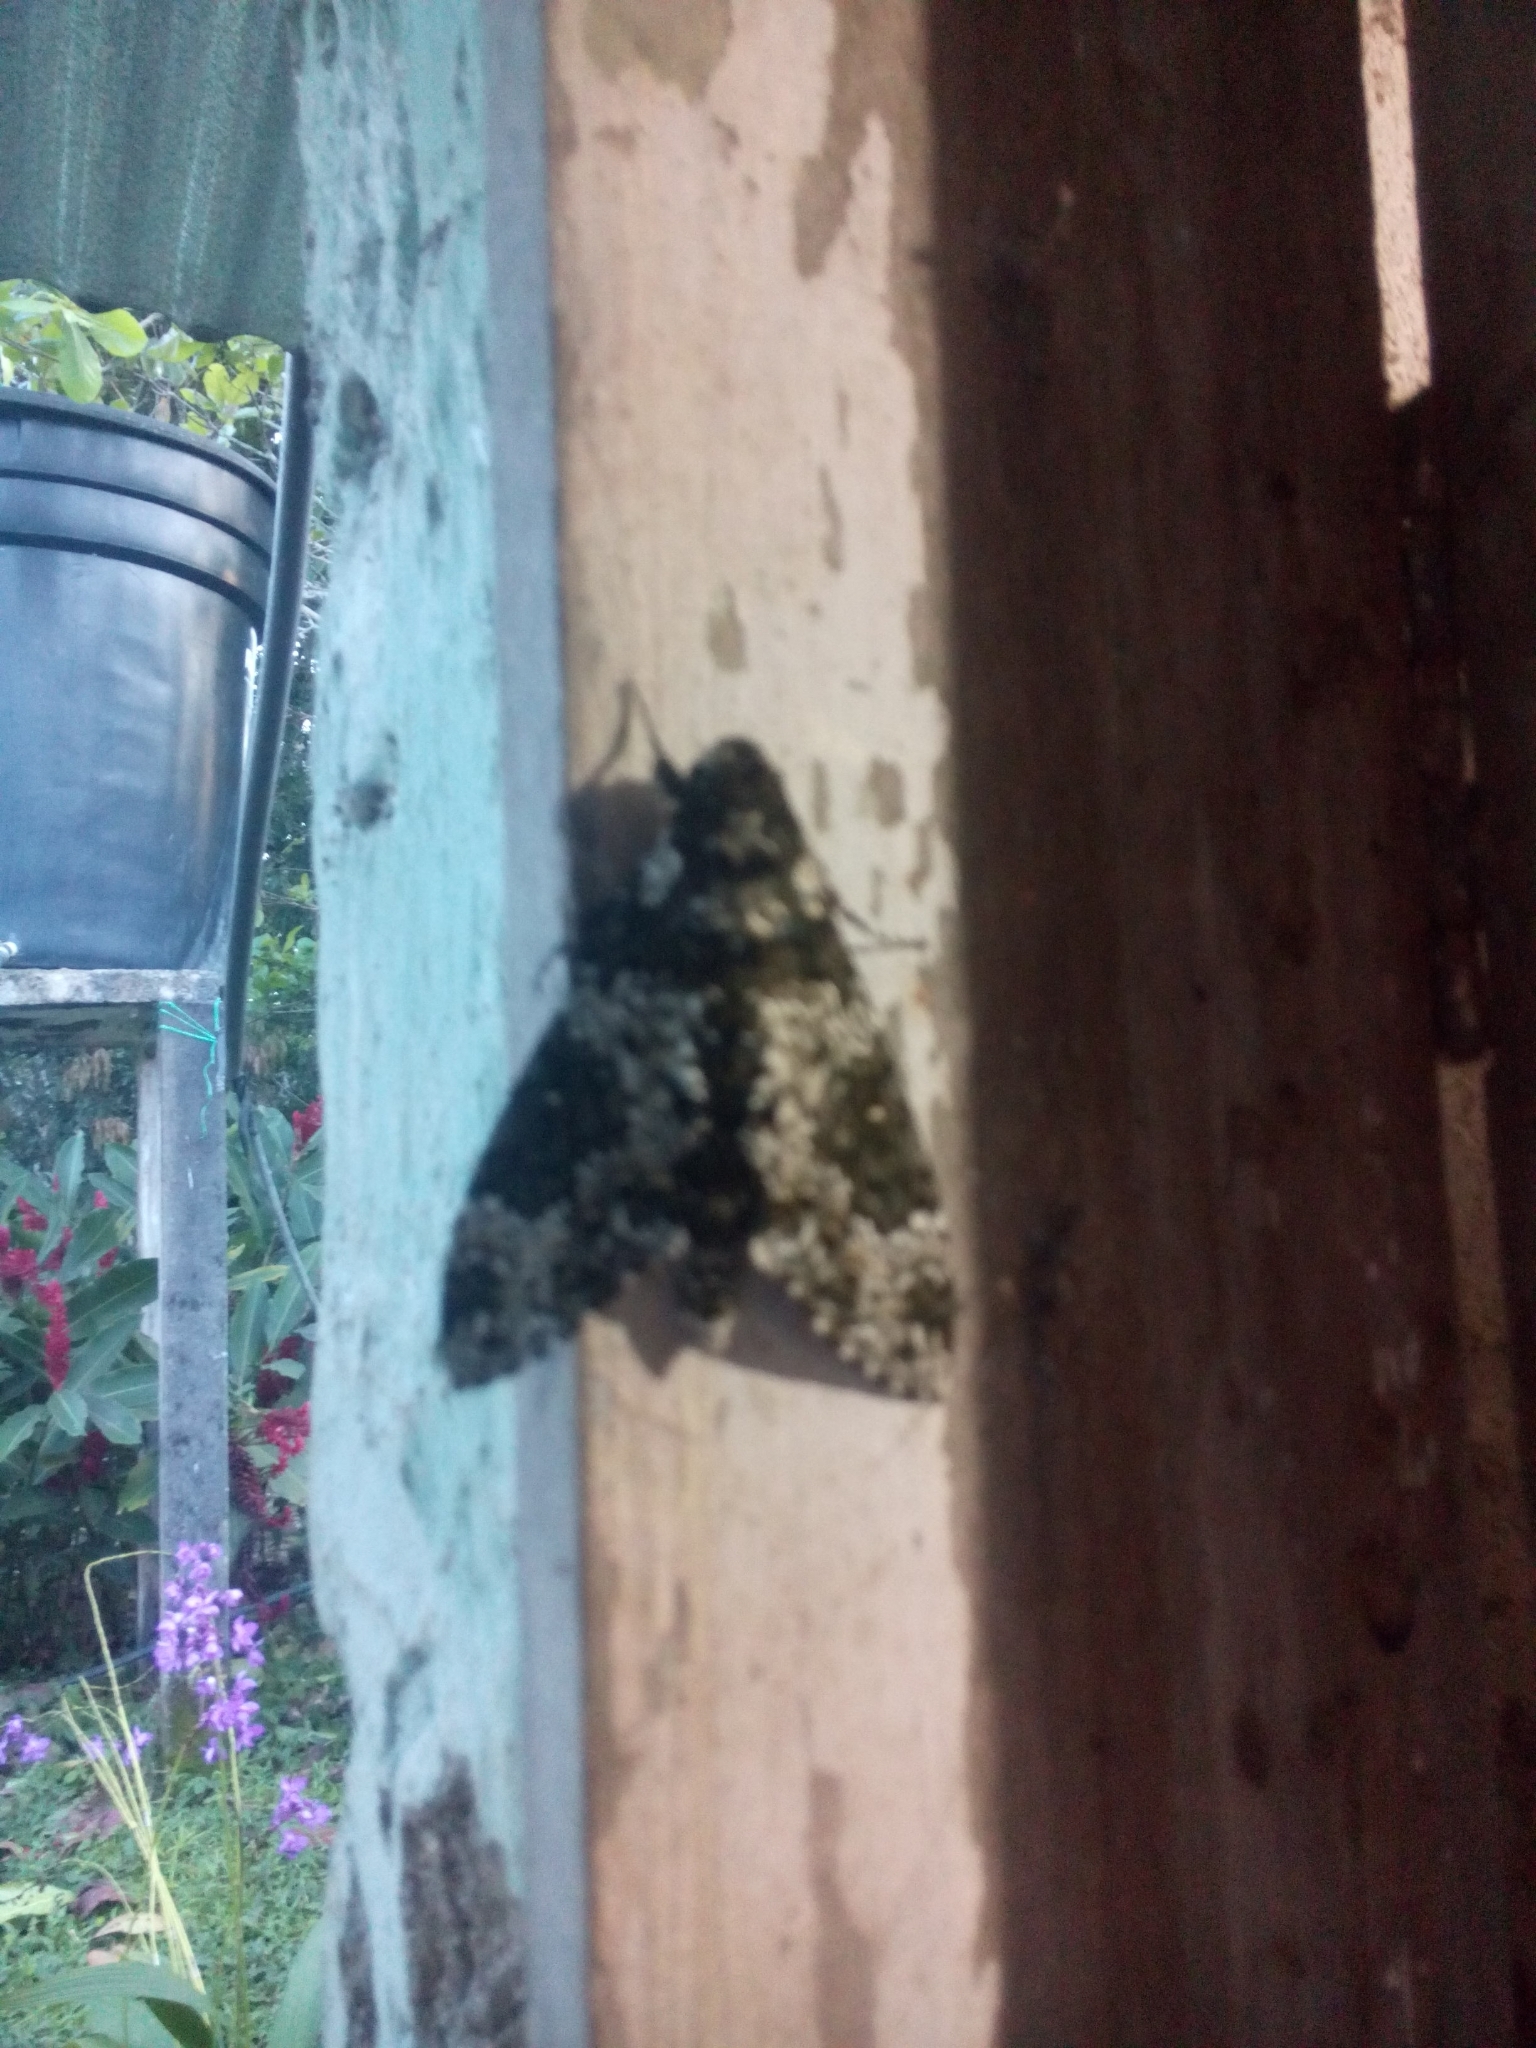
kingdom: Animalia
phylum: Arthropoda
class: Insecta
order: Lepidoptera
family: Sphingidae
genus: Manduca
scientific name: Manduca rustica
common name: Rustic sphinx
